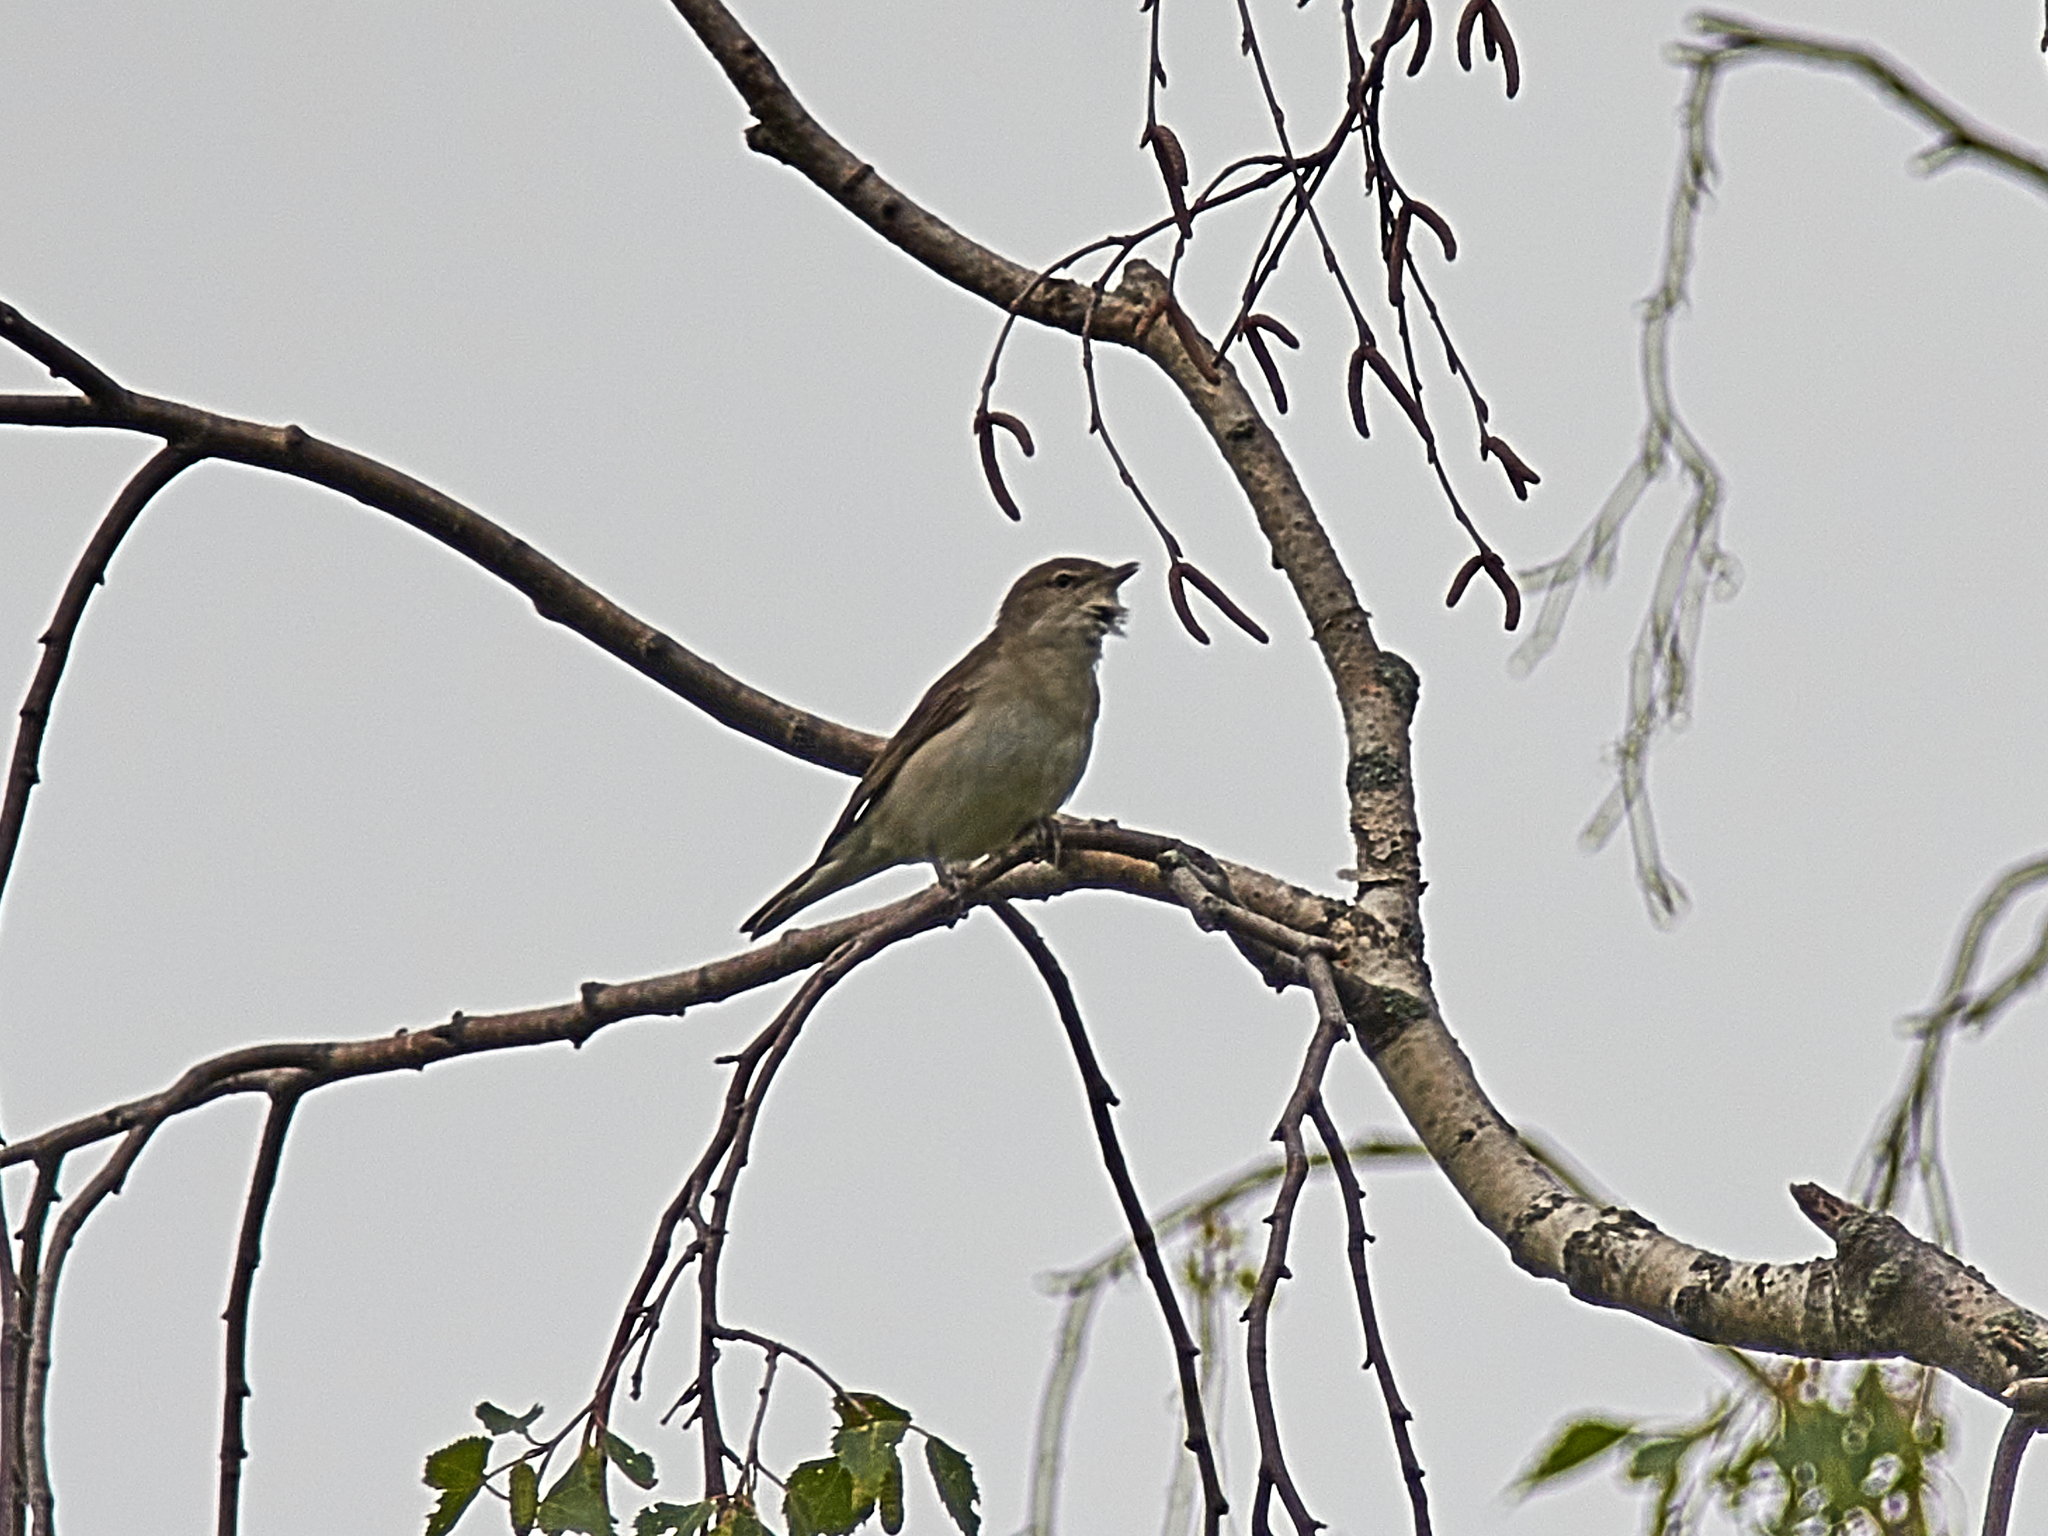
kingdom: Animalia
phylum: Chordata
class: Aves
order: Passeriformes
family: Sylviidae
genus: Sylvia
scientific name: Sylvia borin
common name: Garden warbler
